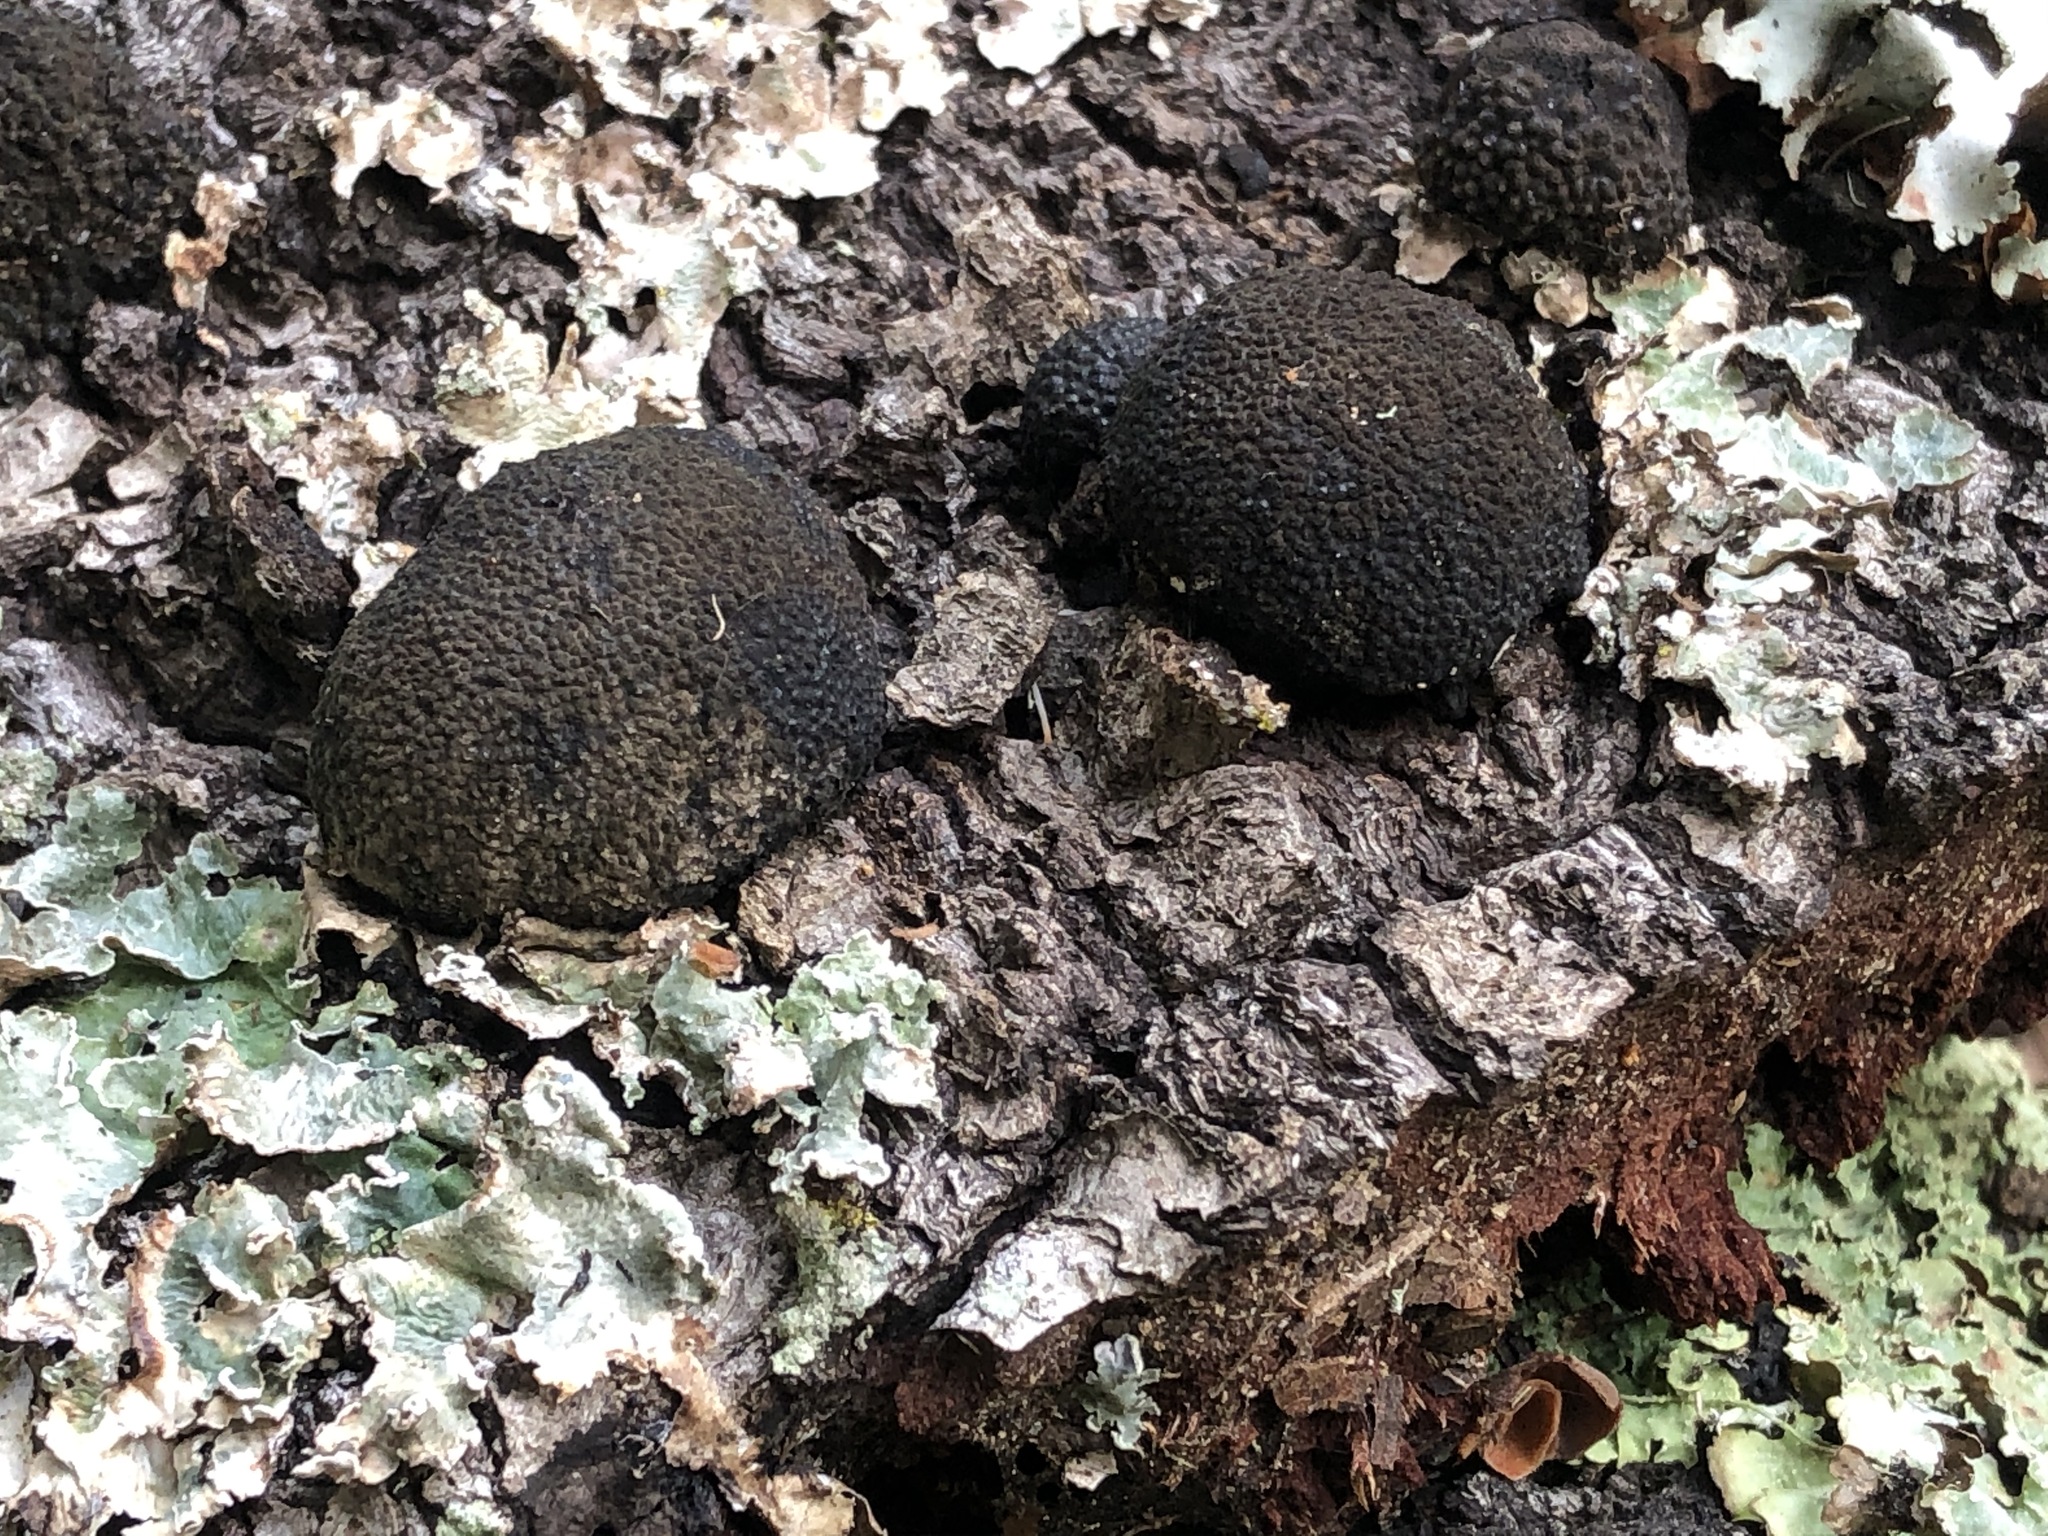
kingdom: Fungi
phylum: Ascomycota
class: Sordariomycetes
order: Xylariales
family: Hypoxylaceae
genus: Annulohypoxylon
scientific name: Annulohypoxylon thouarsianum
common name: Cramp balls
